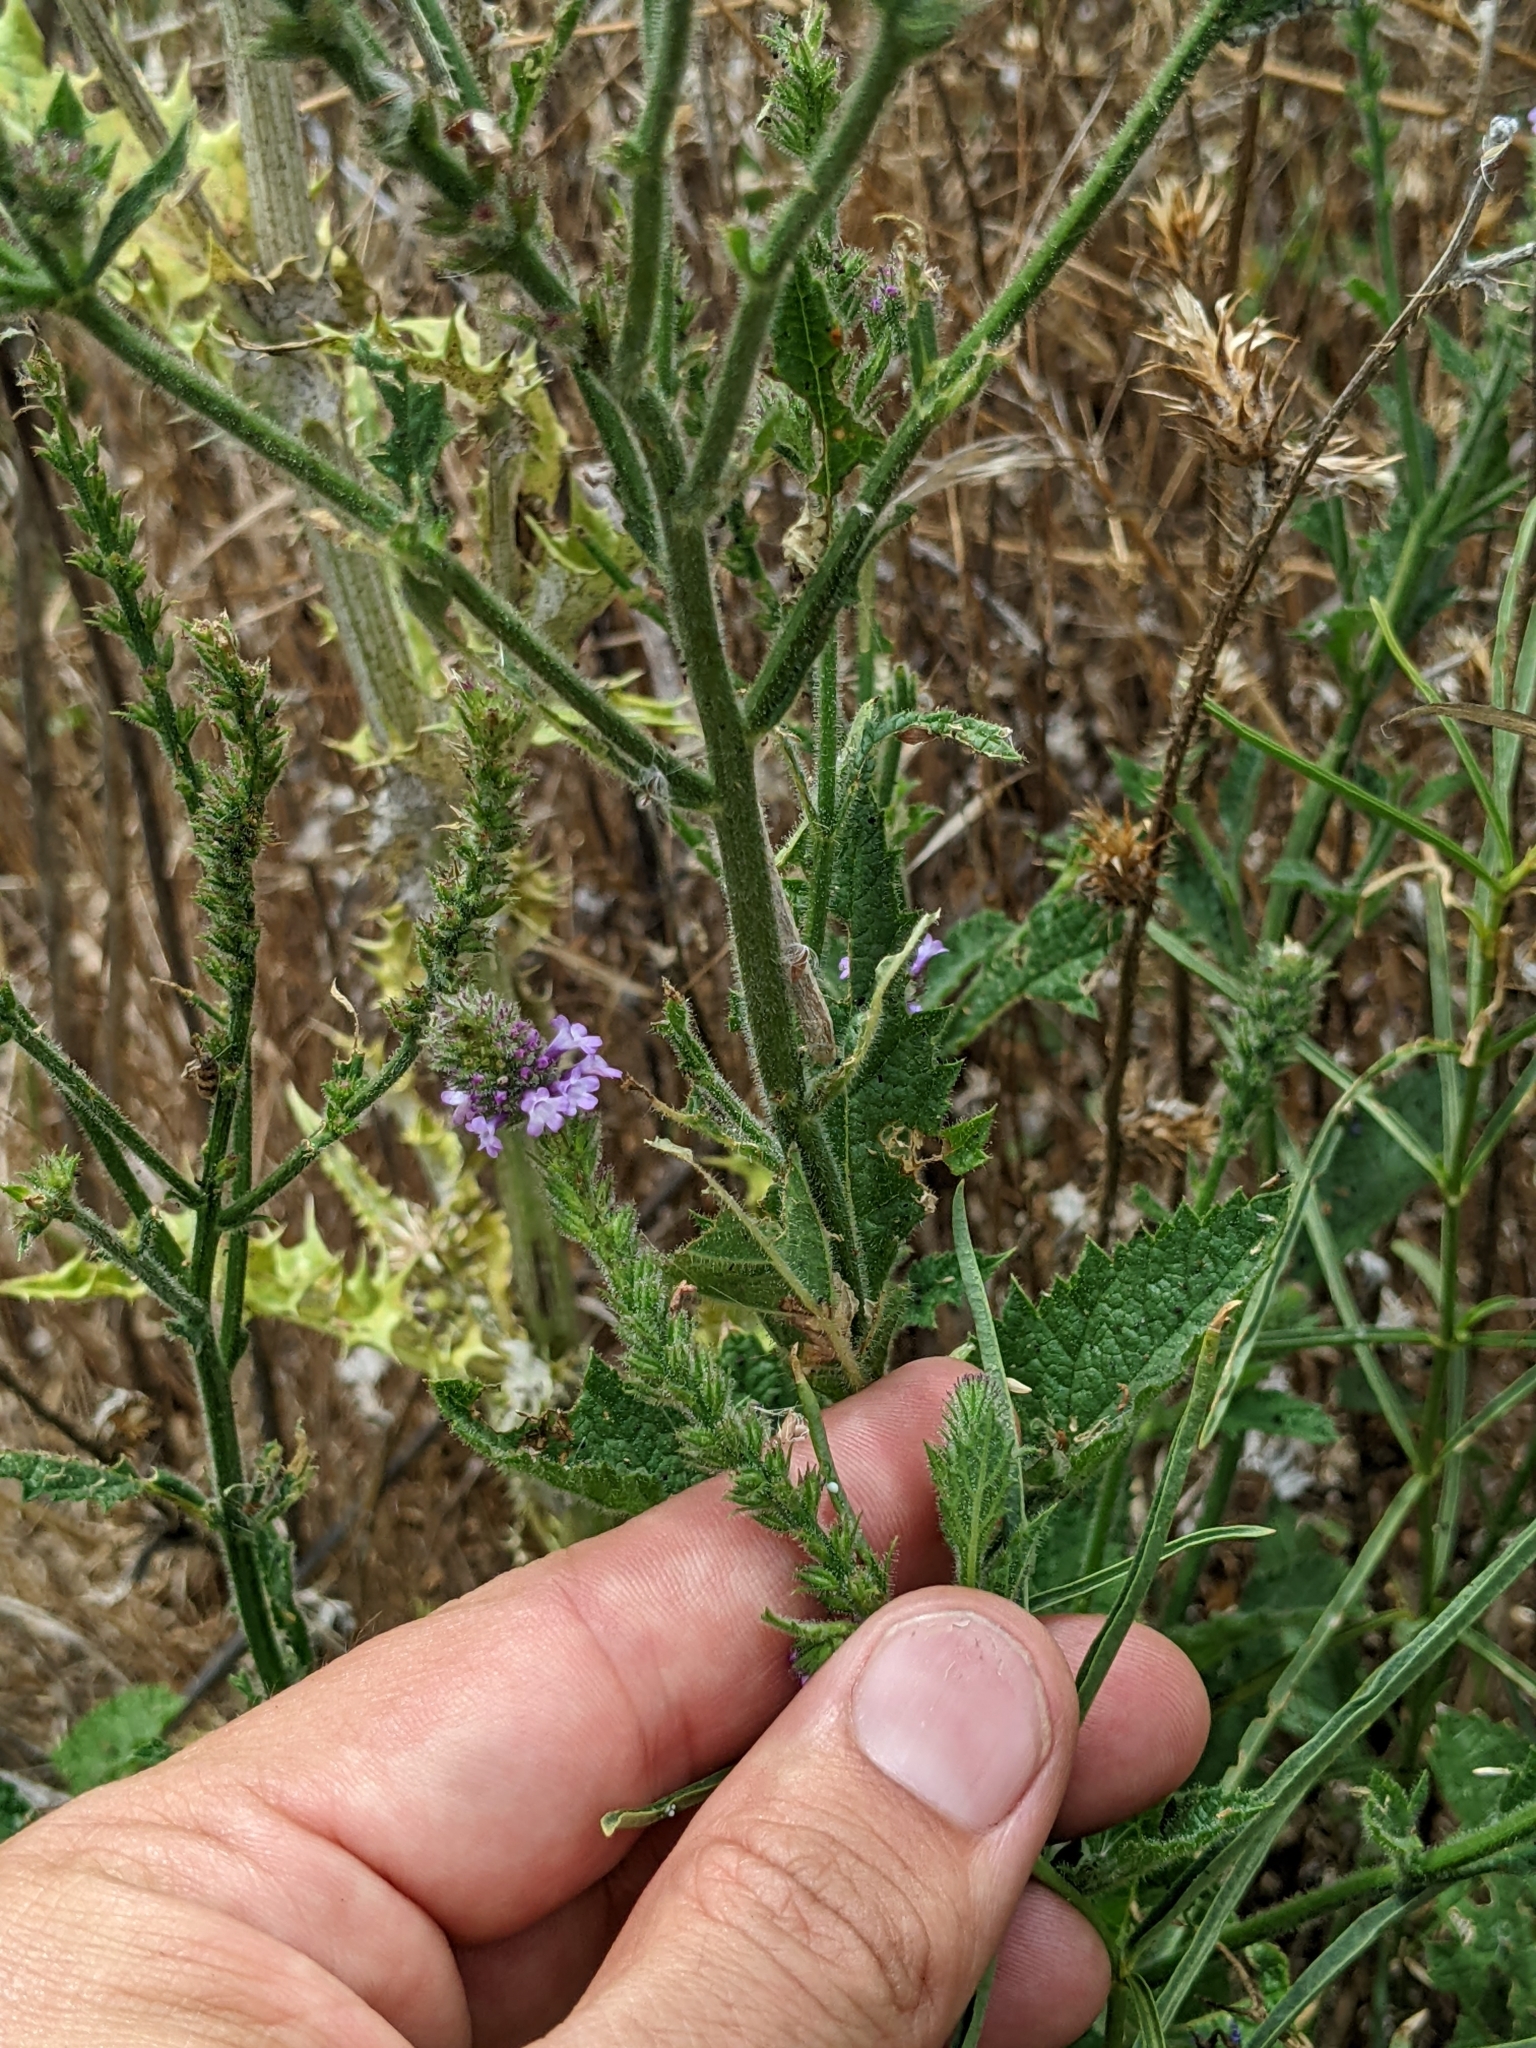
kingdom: Plantae
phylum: Tracheophyta
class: Magnoliopsida
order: Lamiales
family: Verbenaceae
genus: Verbena
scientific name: Verbena lasiostachys
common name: Vervain
